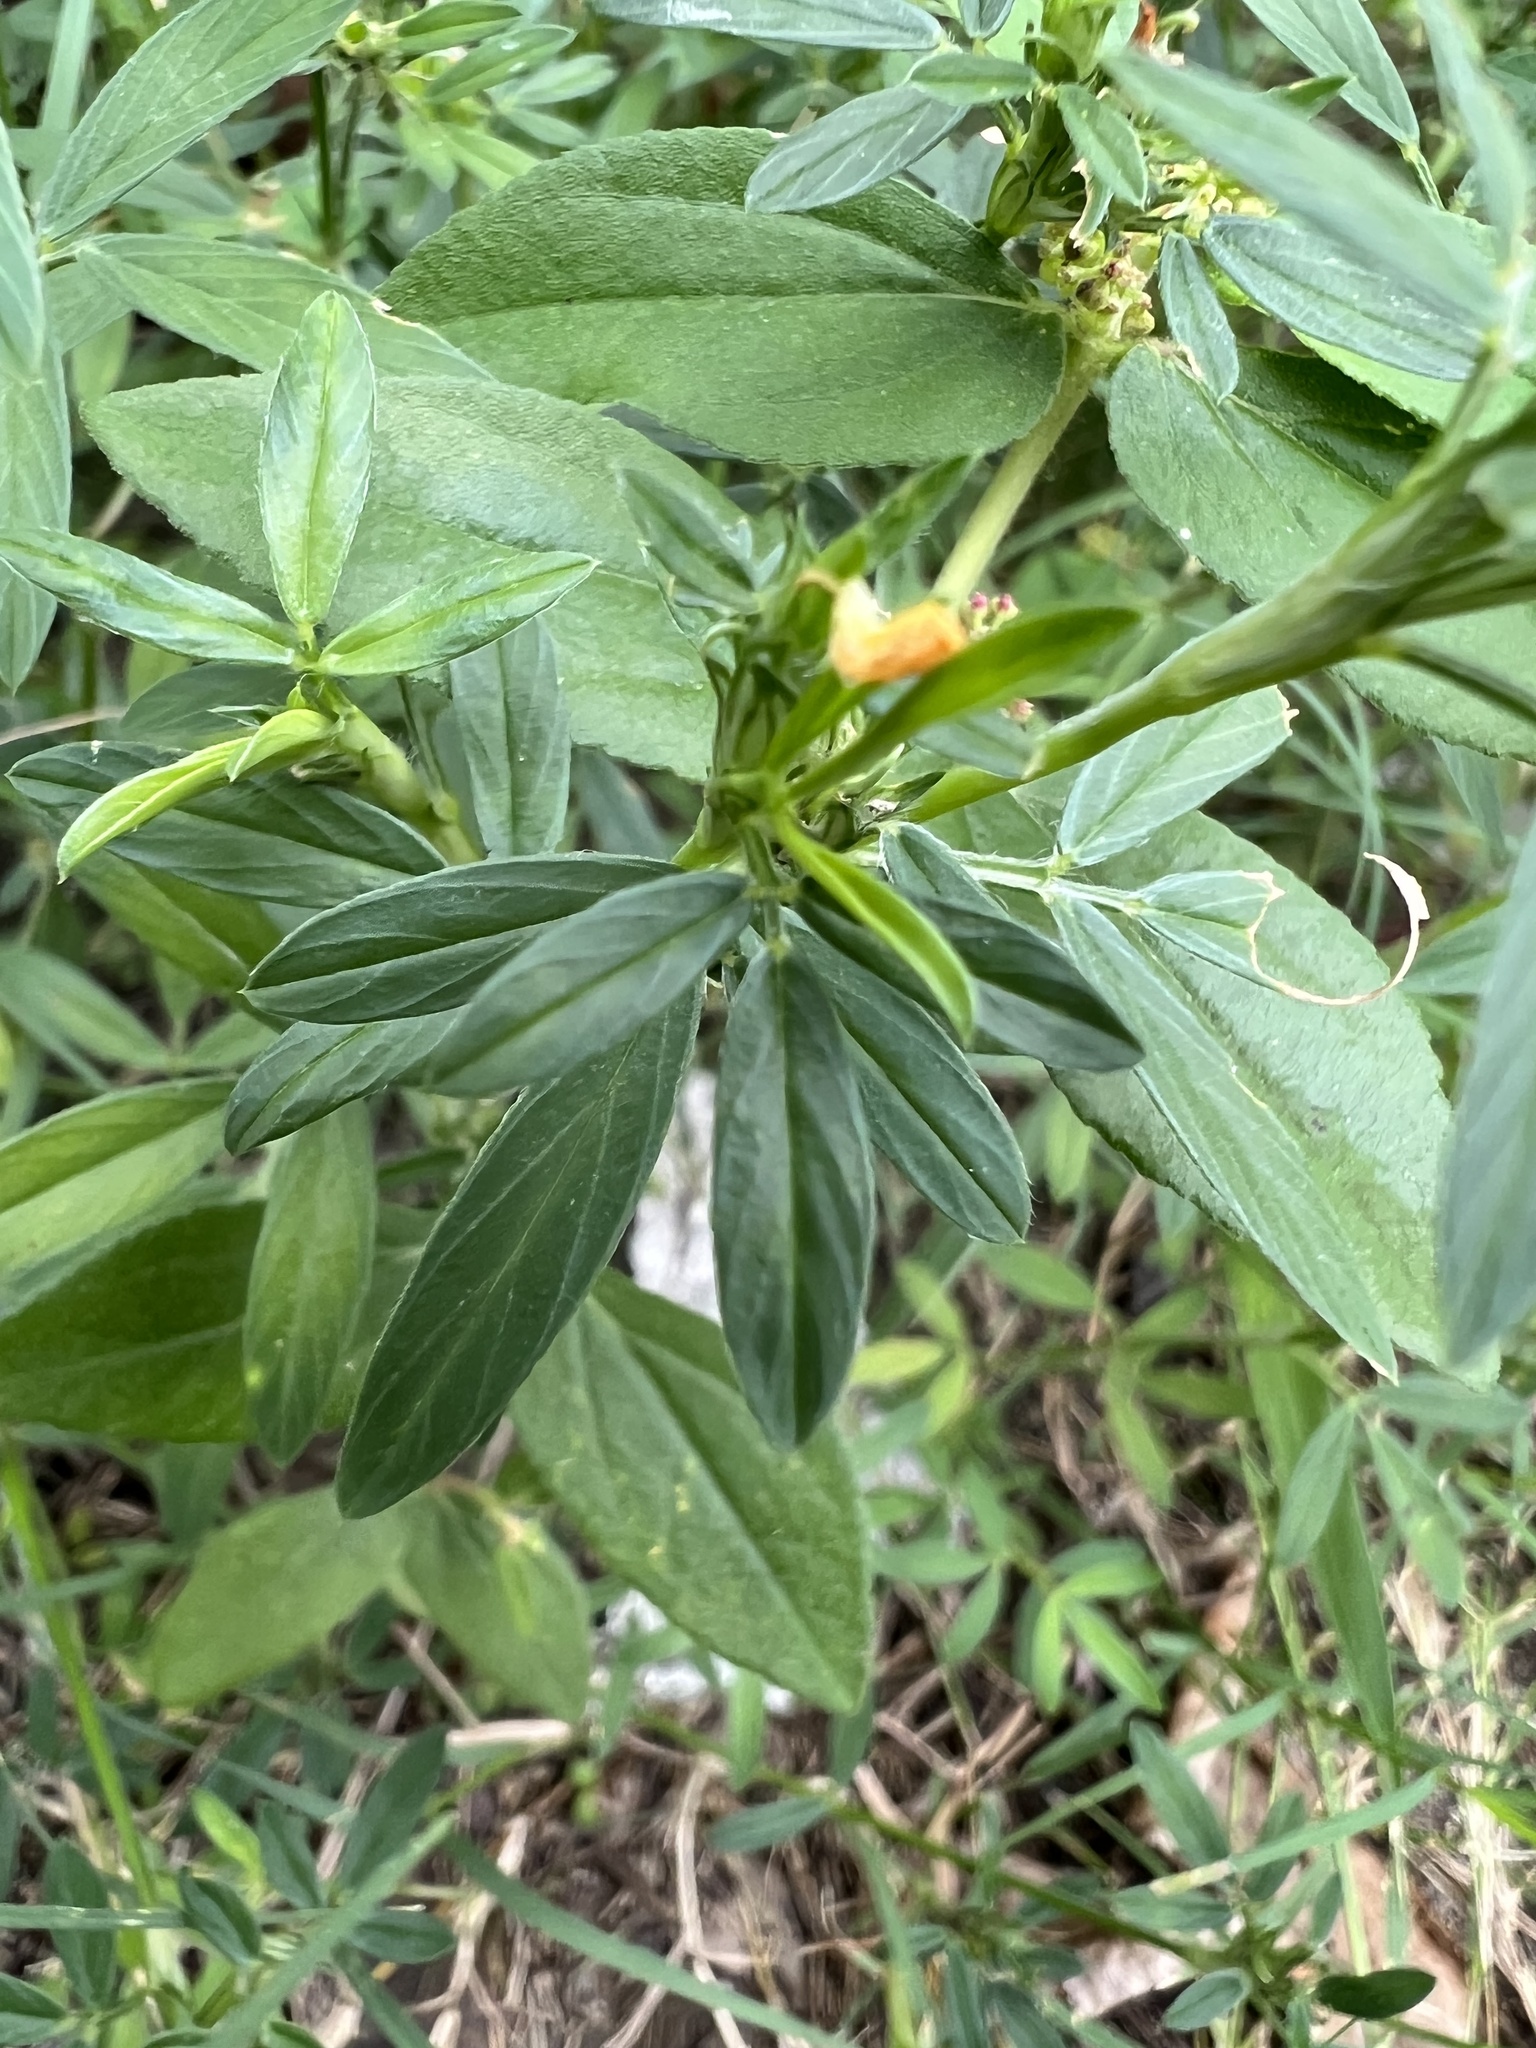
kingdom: Plantae
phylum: Tracheophyta
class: Magnoliopsida
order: Fabales
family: Fabaceae
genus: Stylosanthes
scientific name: Stylosanthes hamata
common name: Cheesytoes
